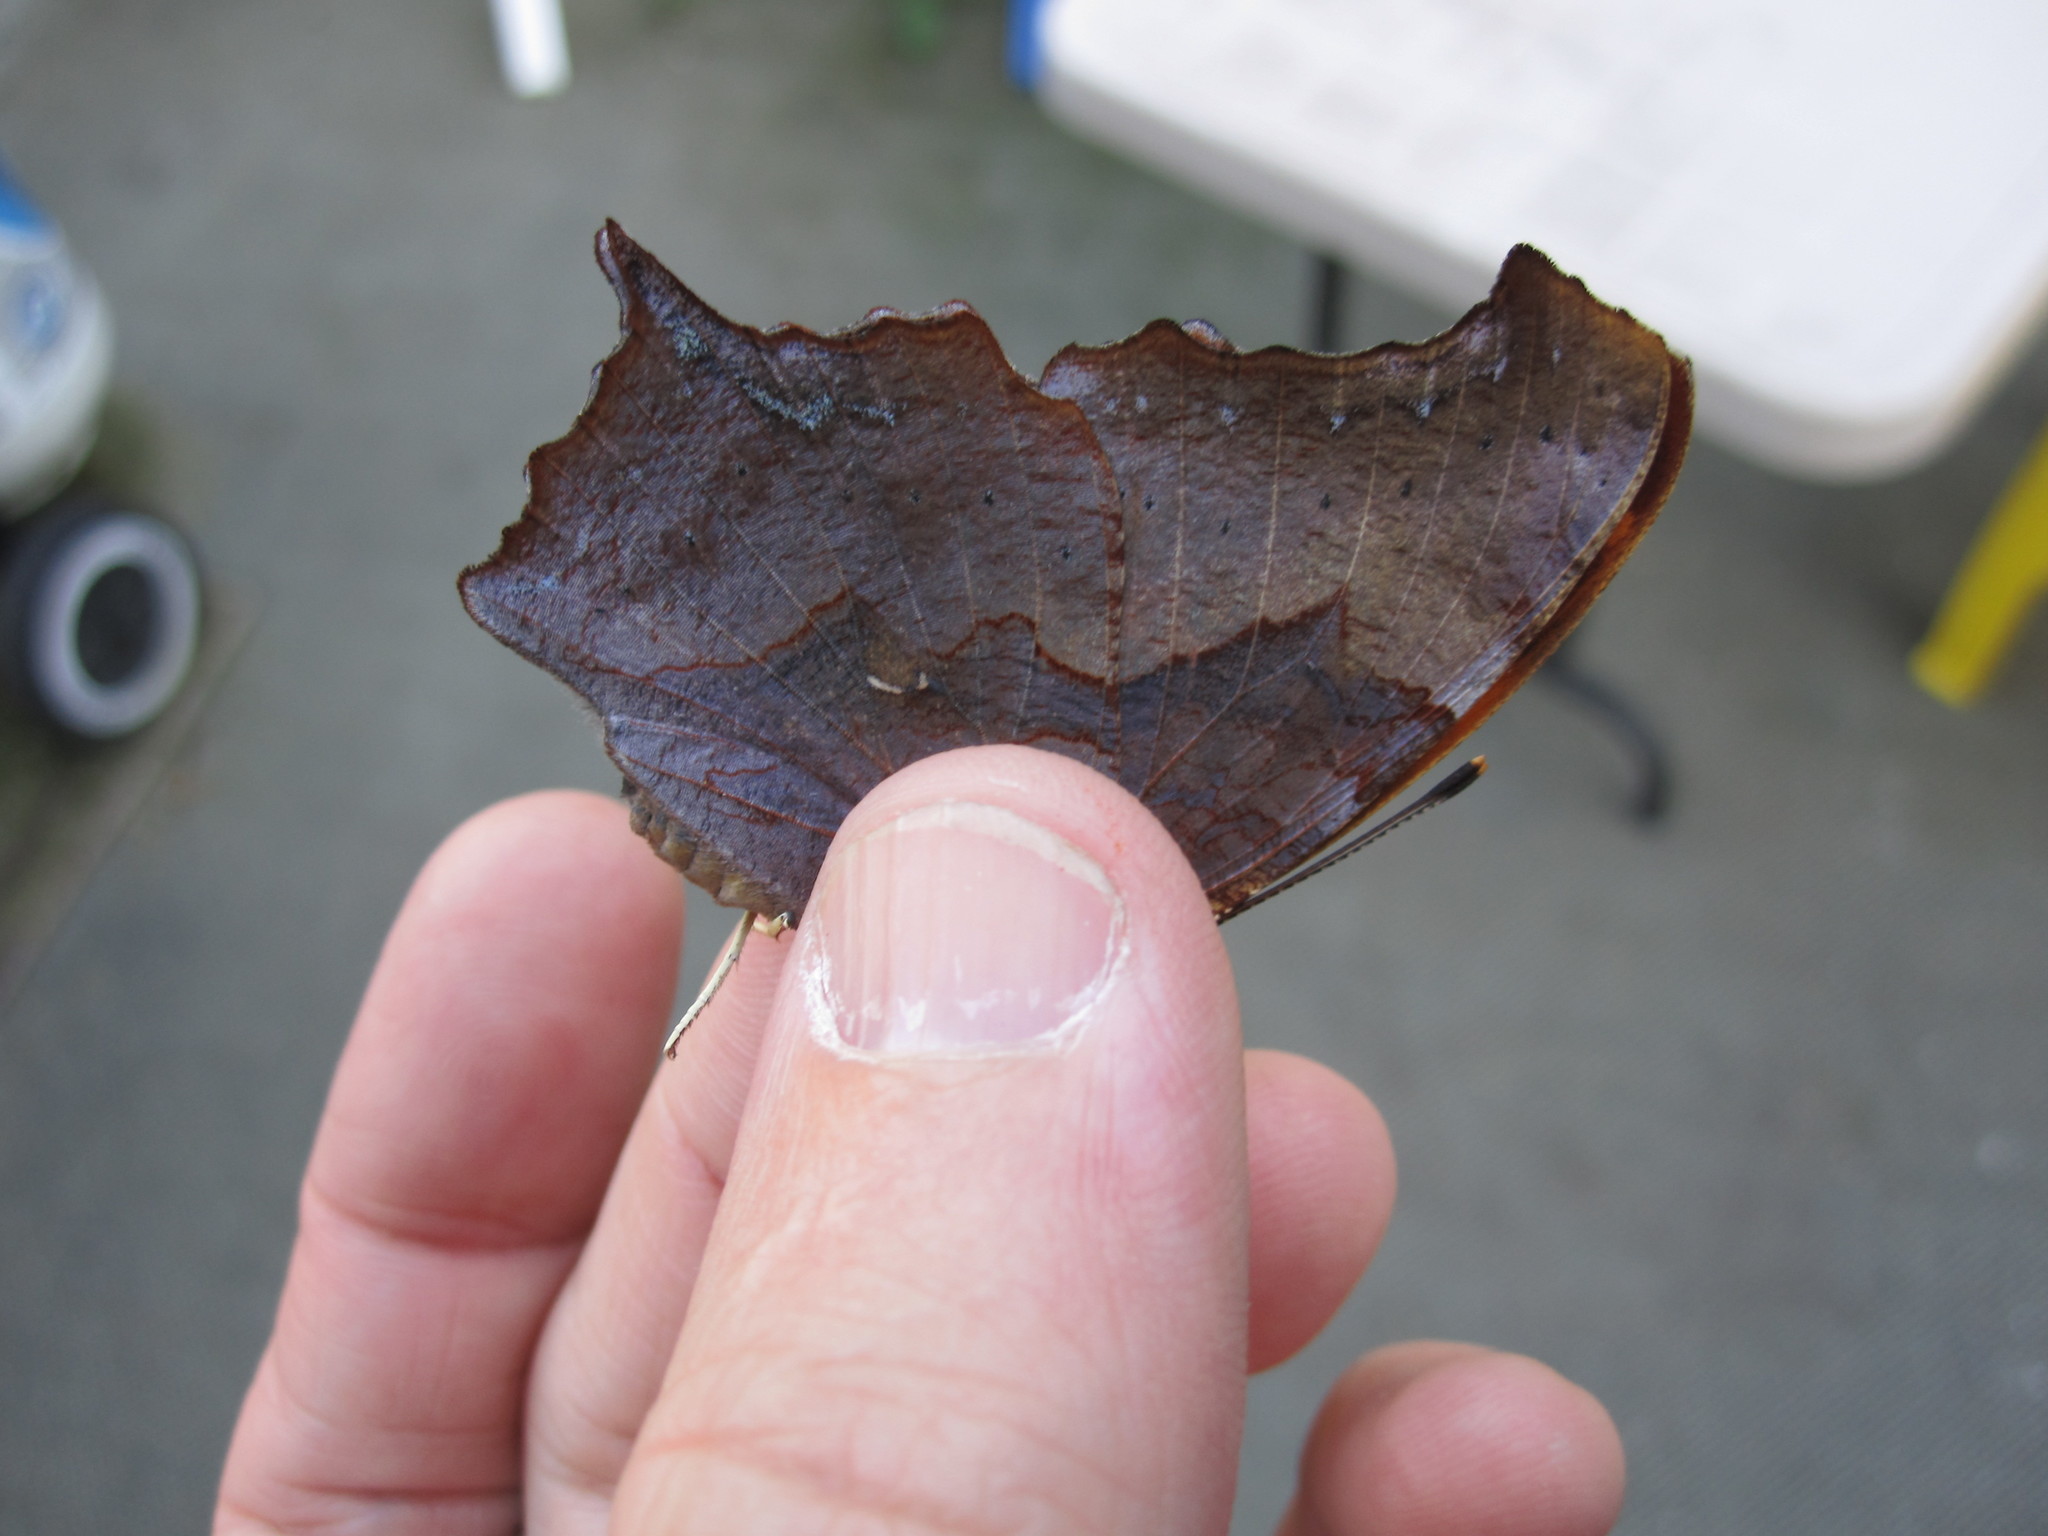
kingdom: Animalia
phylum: Arthropoda
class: Insecta
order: Lepidoptera
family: Nymphalidae
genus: Polygonia
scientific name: Polygonia interrogationis
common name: Question mark
